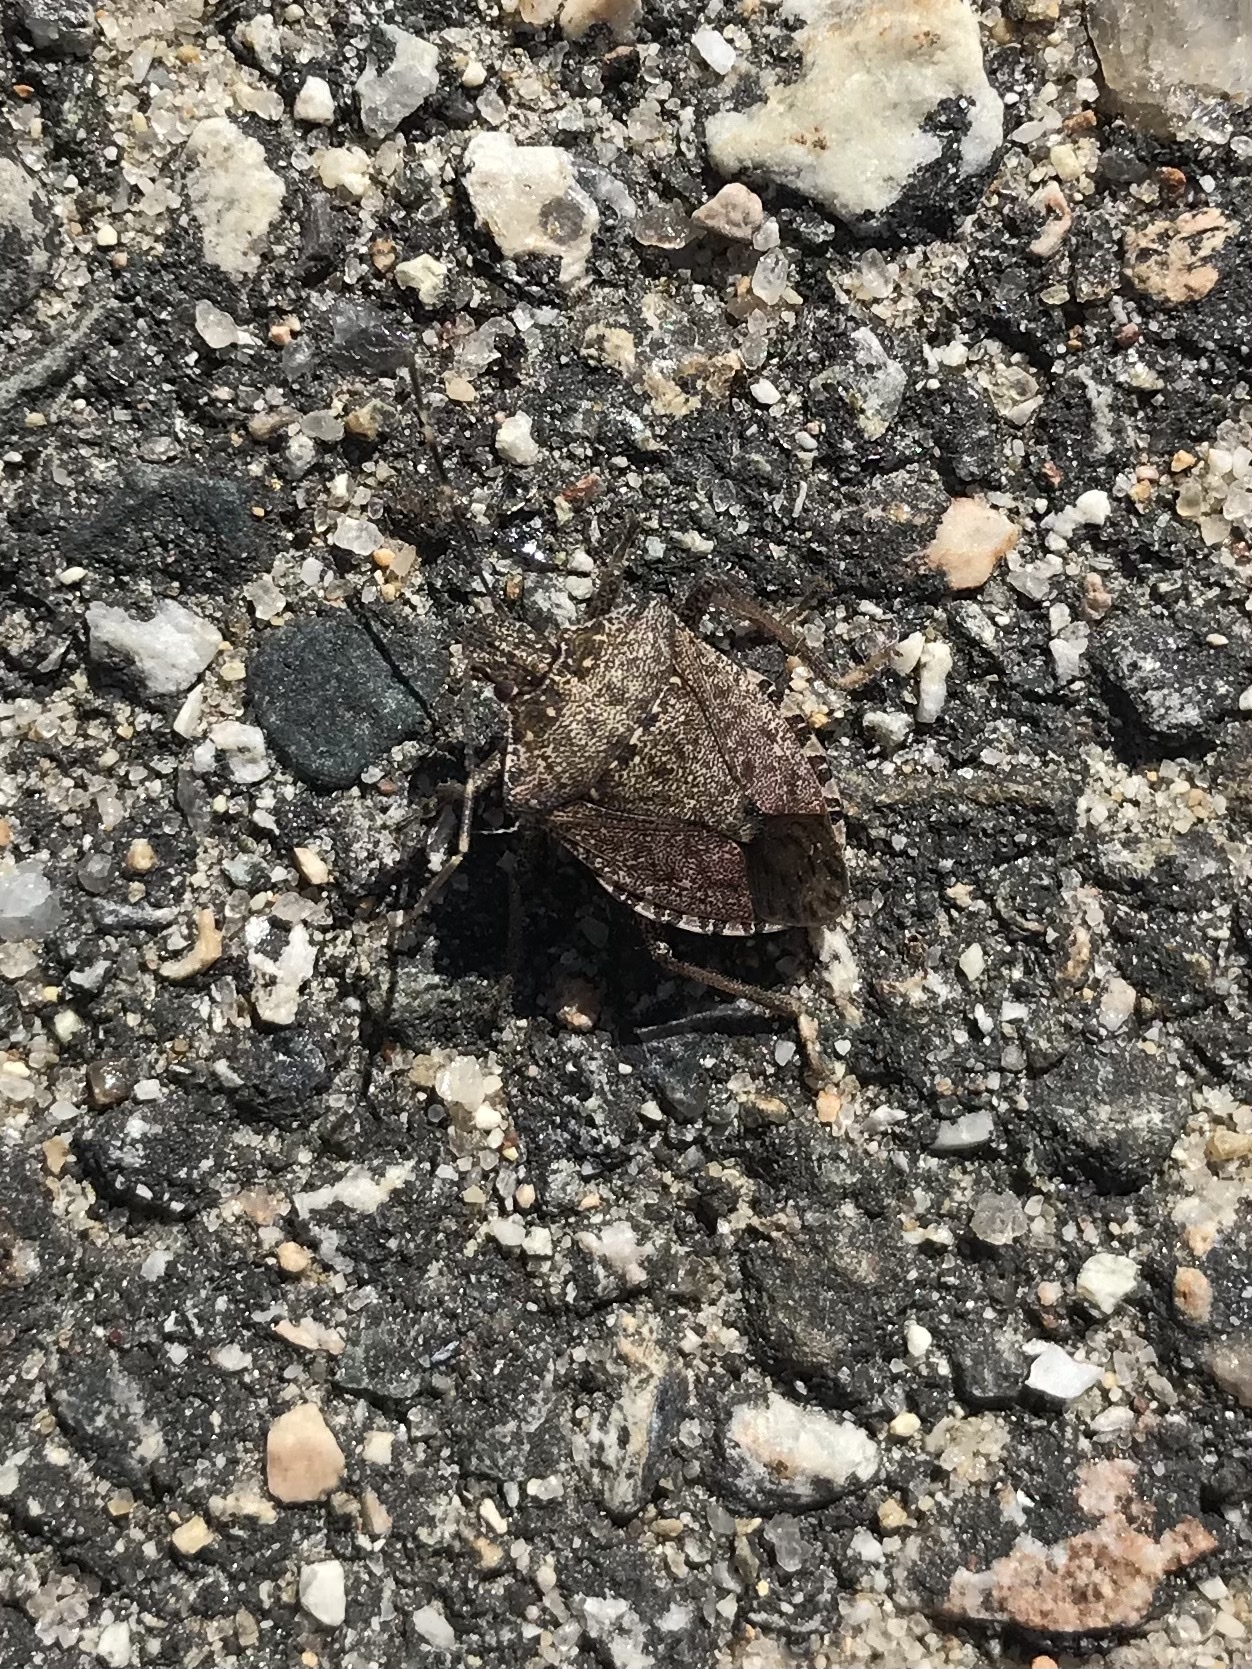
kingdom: Animalia
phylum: Arthropoda
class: Insecta
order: Hemiptera
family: Pentatomidae
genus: Halyomorpha
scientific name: Halyomorpha halys
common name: Brown marmorated stink bug
